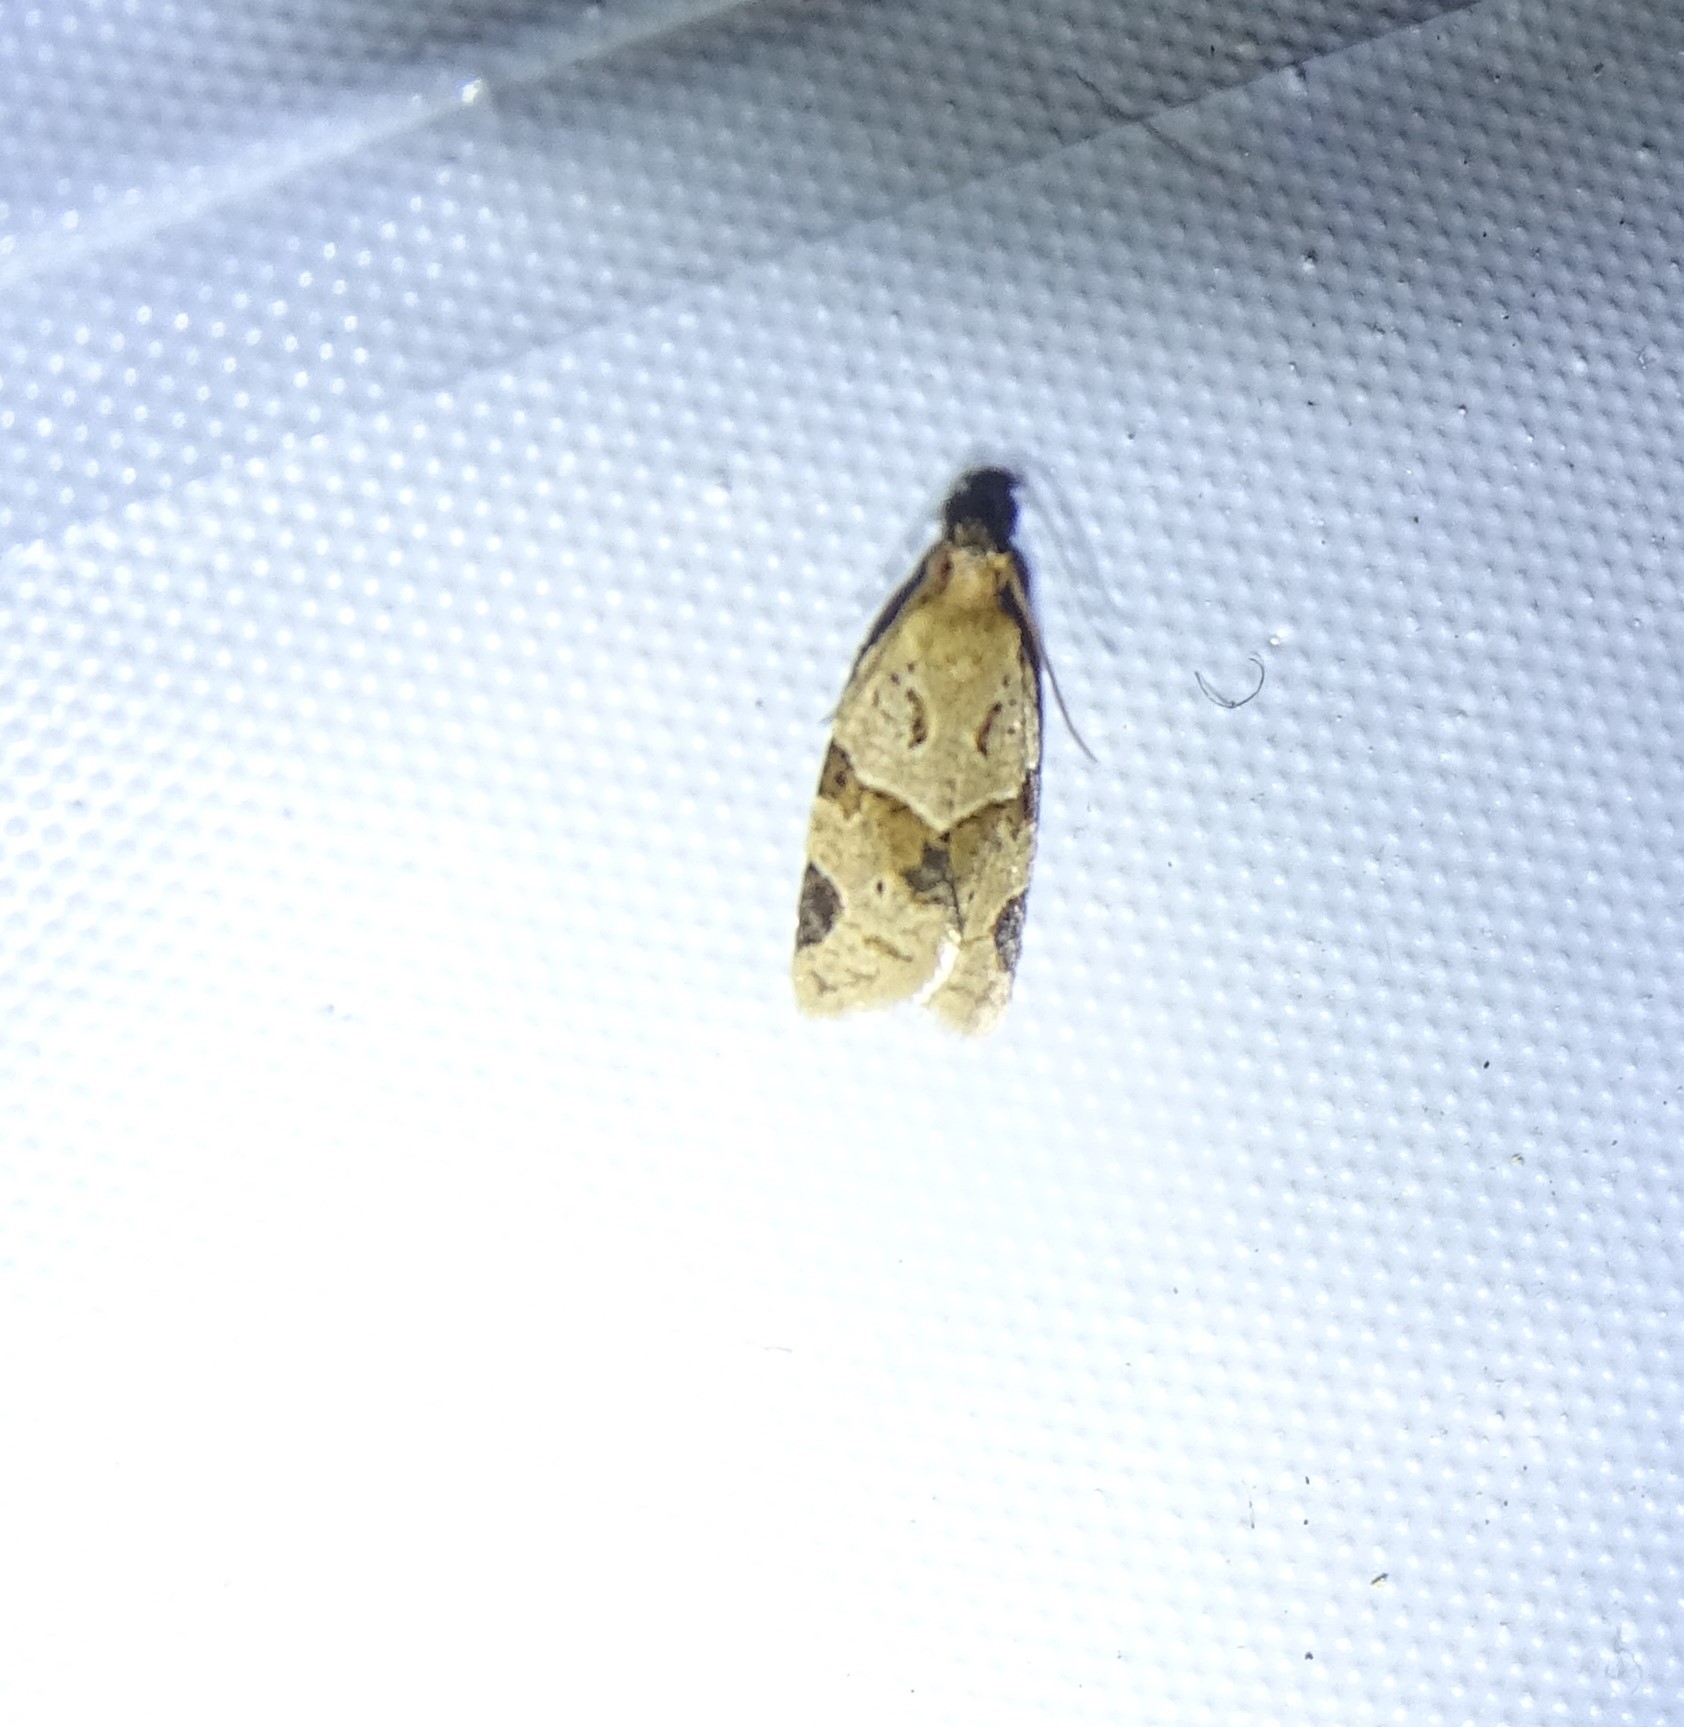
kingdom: Animalia
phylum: Arthropoda
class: Insecta
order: Lepidoptera
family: Tortricidae
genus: Clepsis
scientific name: Clepsis peritana
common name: Garden tortrix
